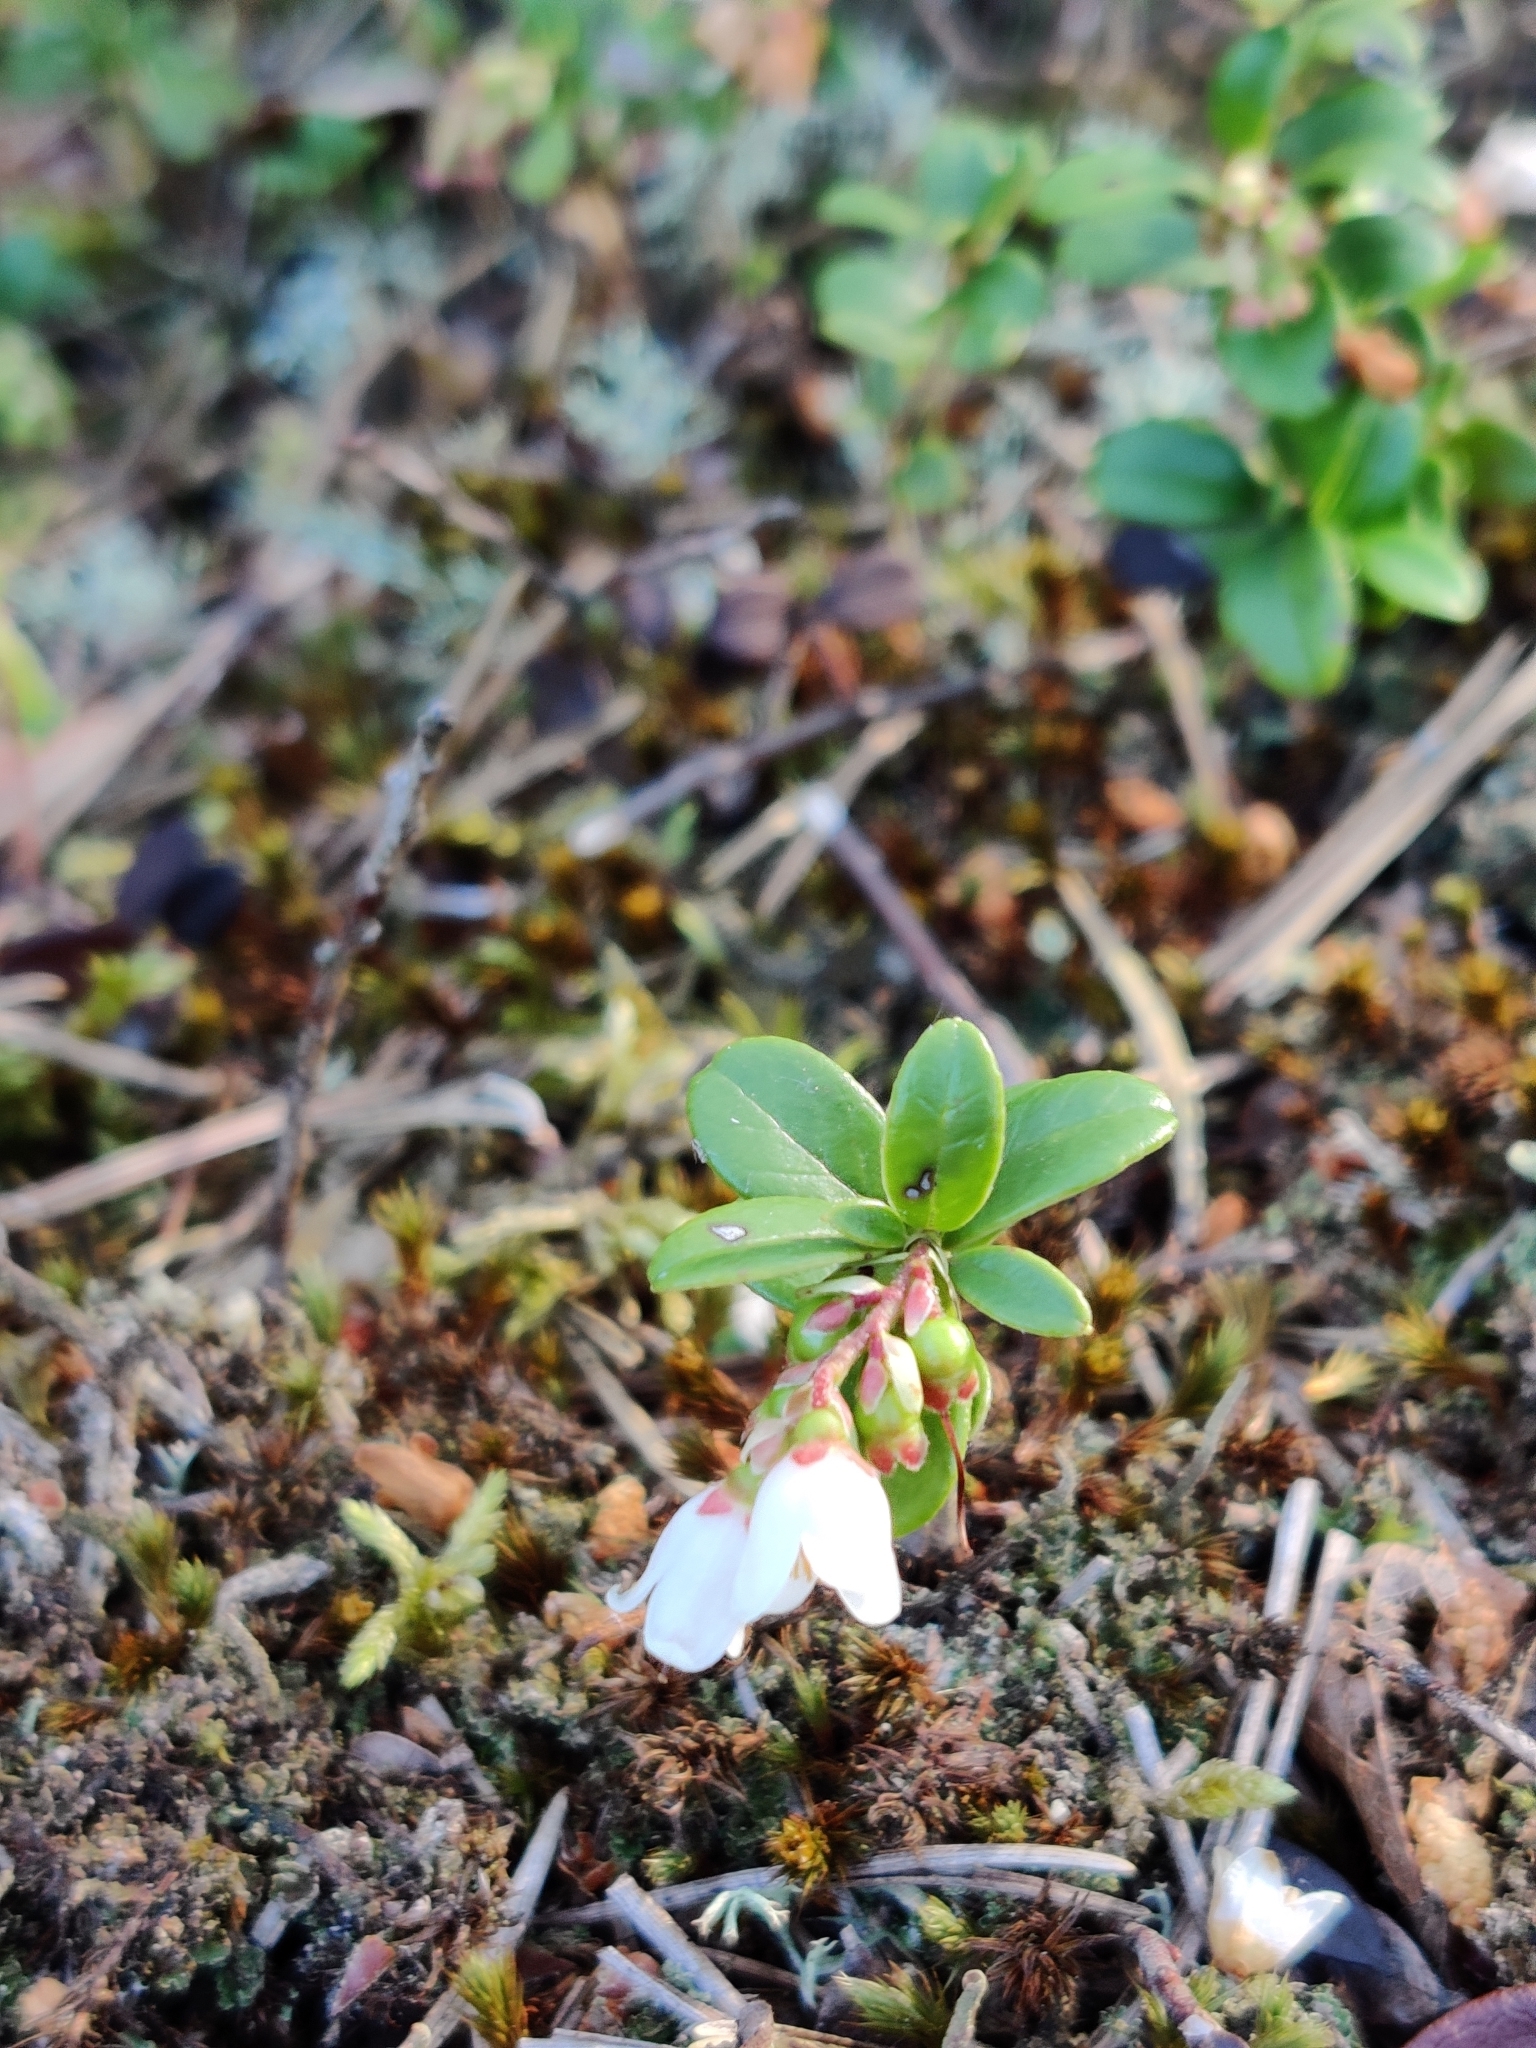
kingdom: Plantae
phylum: Tracheophyta
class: Magnoliopsida
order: Ericales
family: Ericaceae
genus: Vaccinium
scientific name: Vaccinium vitis-idaea
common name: Cowberry
